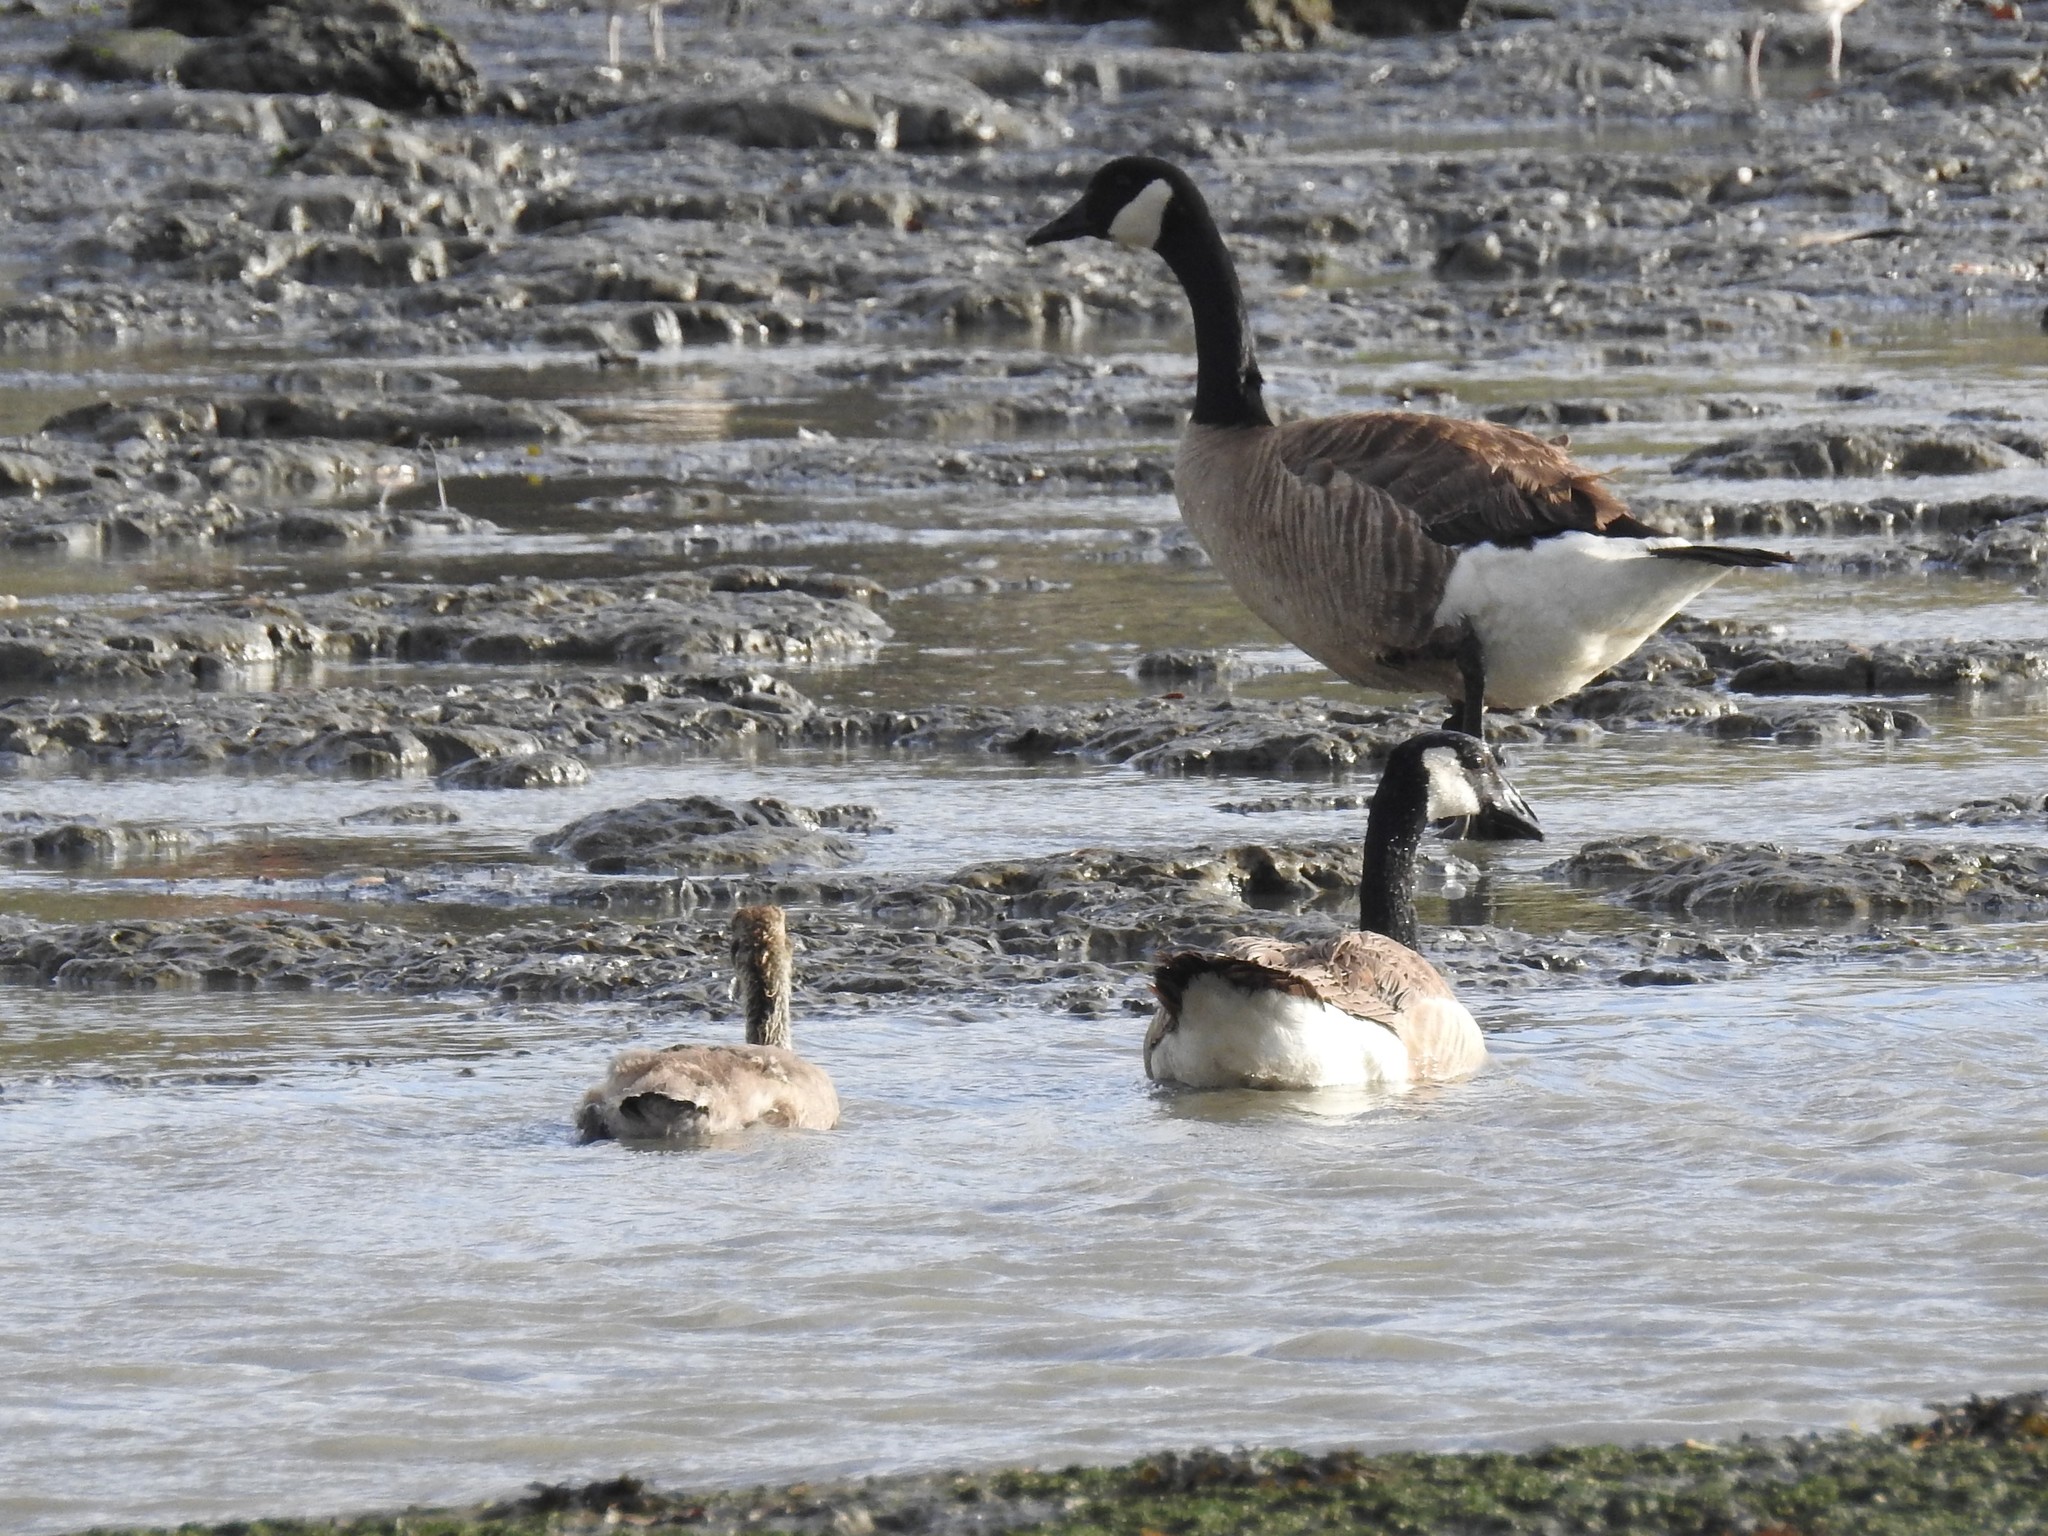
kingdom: Animalia
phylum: Chordata
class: Aves
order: Anseriformes
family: Anatidae
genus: Branta
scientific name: Branta canadensis
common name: Canada goose
